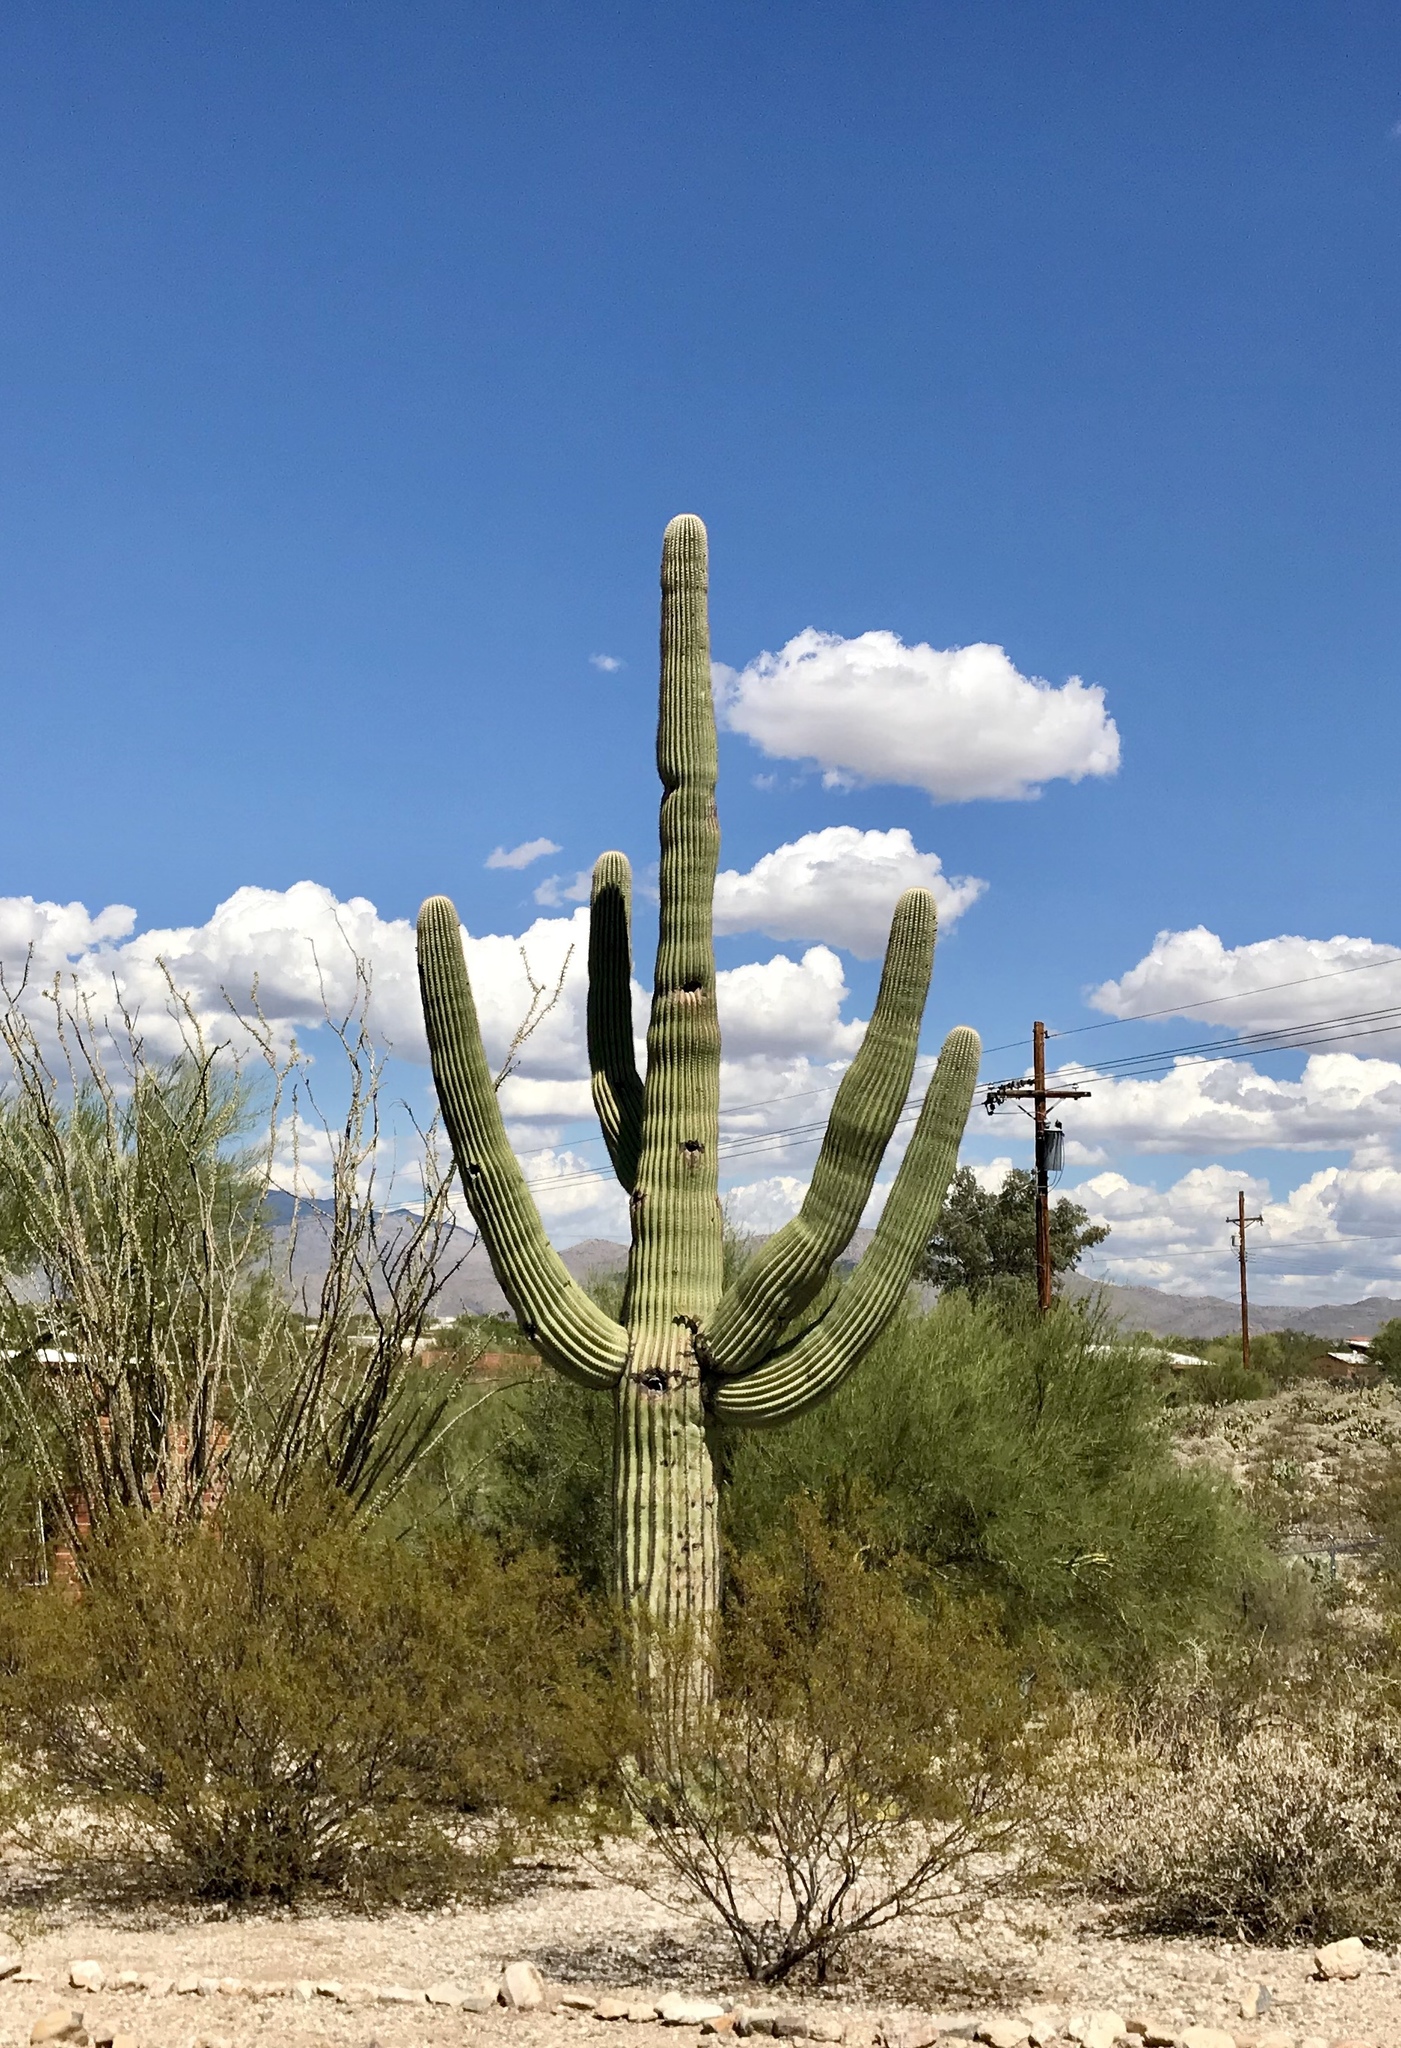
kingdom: Plantae
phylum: Tracheophyta
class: Magnoliopsida
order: Caryophyllales
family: Cactaceae
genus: Carnegiea
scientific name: Carnegiea gigantea
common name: Saguaro
